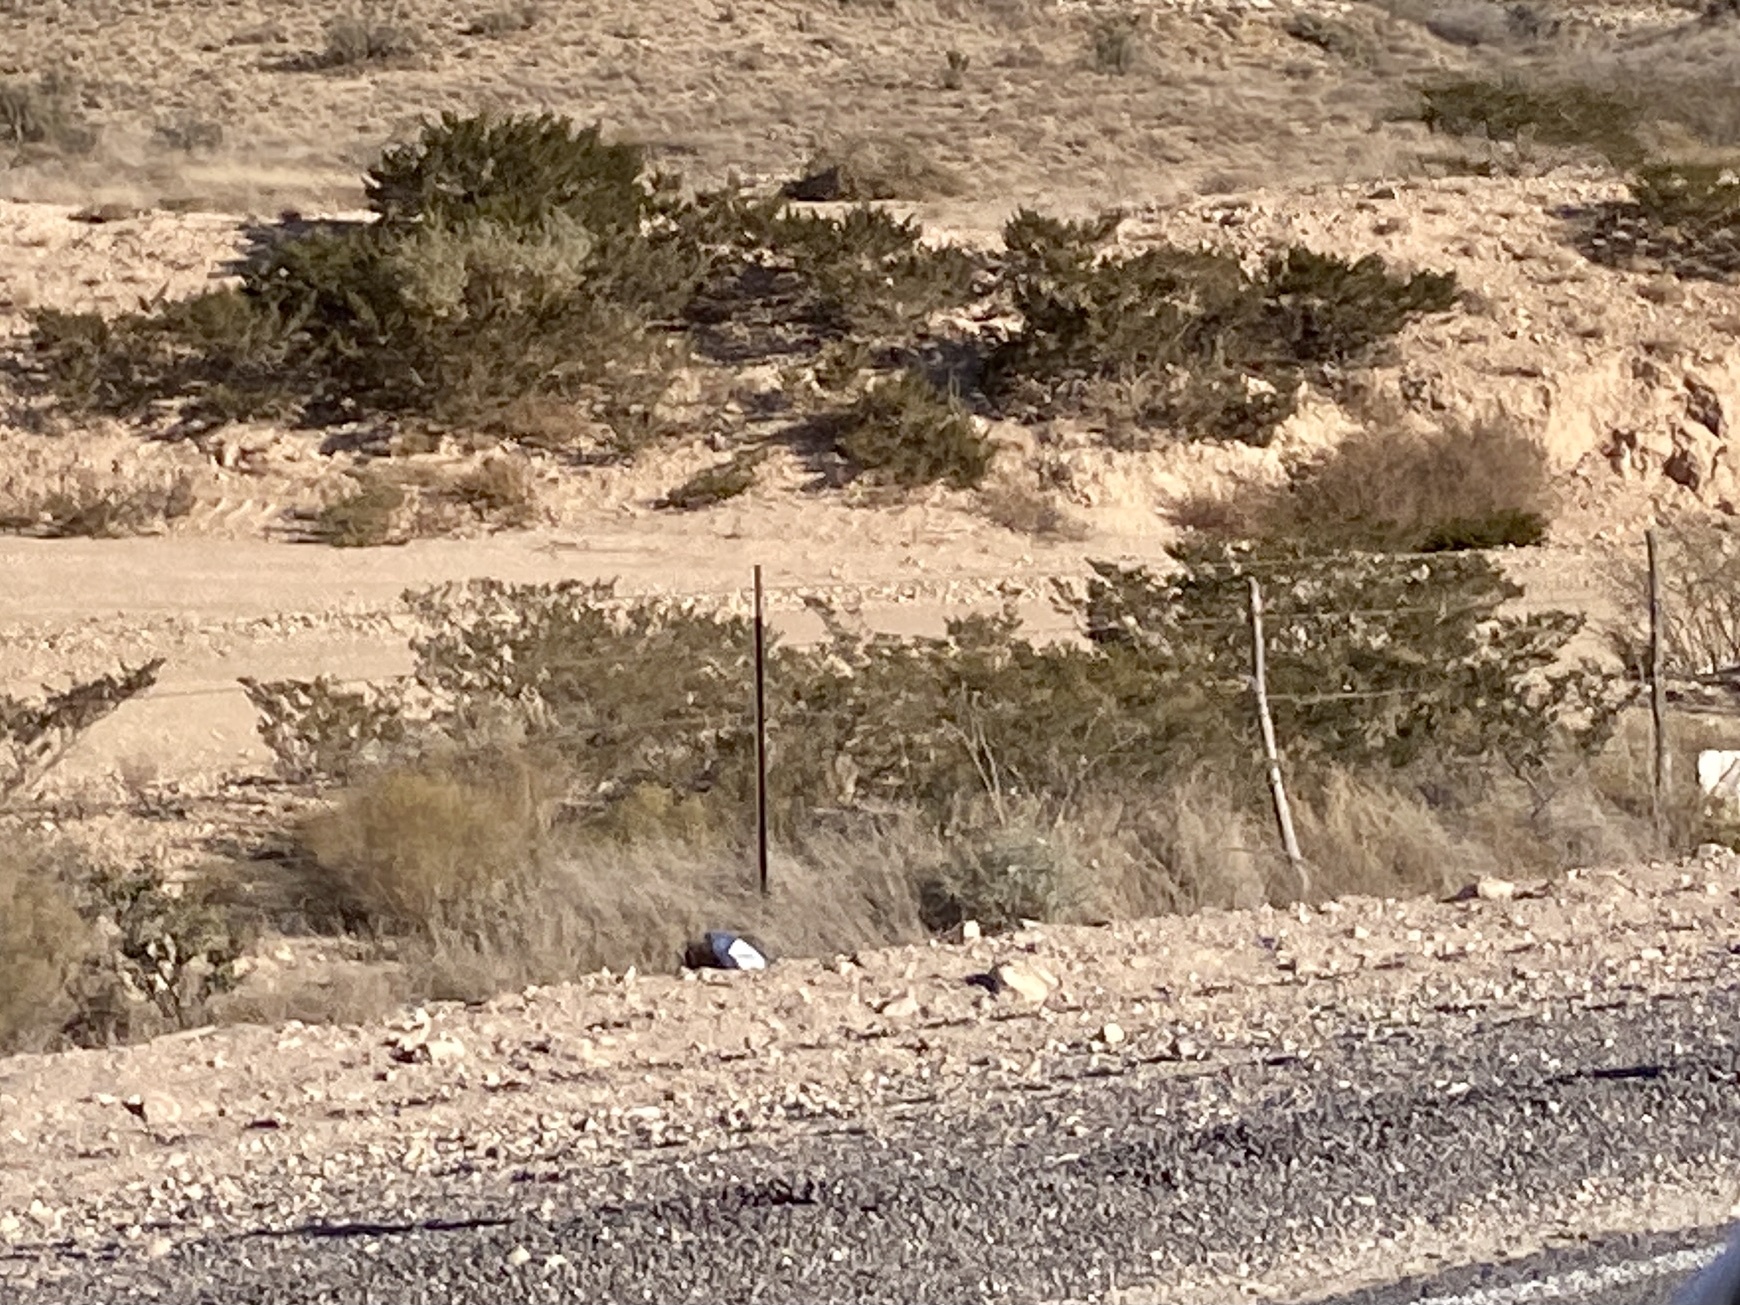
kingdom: Plantae
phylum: Tracheophyta
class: Magnoliopsida
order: Zygophyllales
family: Zygophyllaceae
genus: Larrea
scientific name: Larrea tridentata
